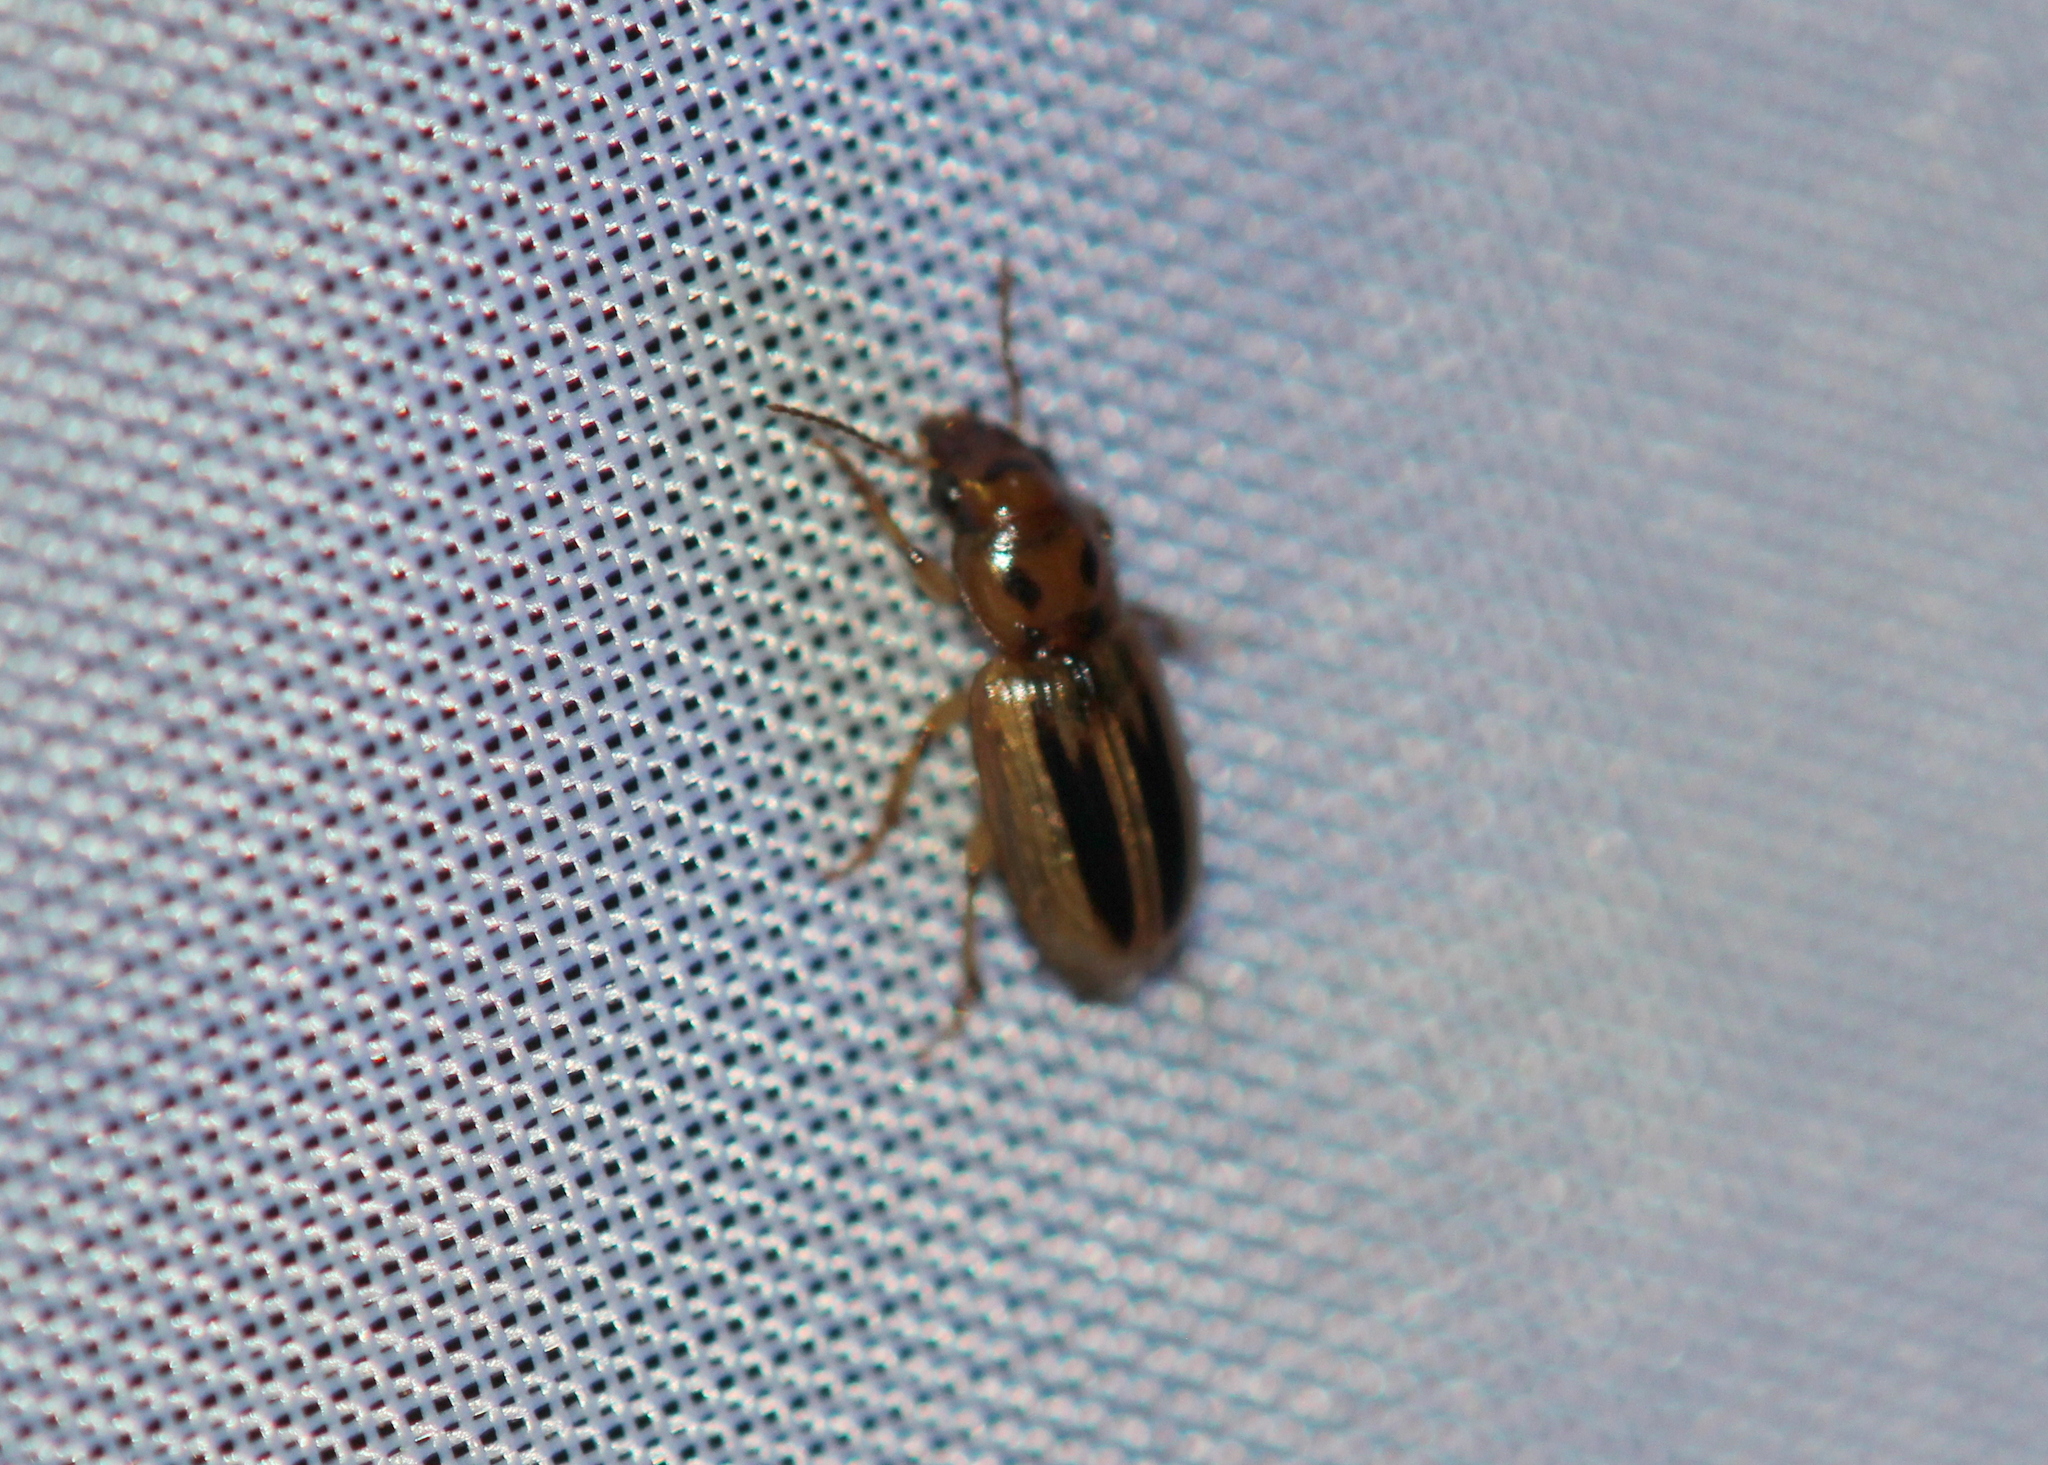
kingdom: Animalia
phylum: Arthropoda
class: Insecta
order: Coleoptera
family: Carabidae
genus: Stenolophus
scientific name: Stenolophus lineola
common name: Lined stenolophus
